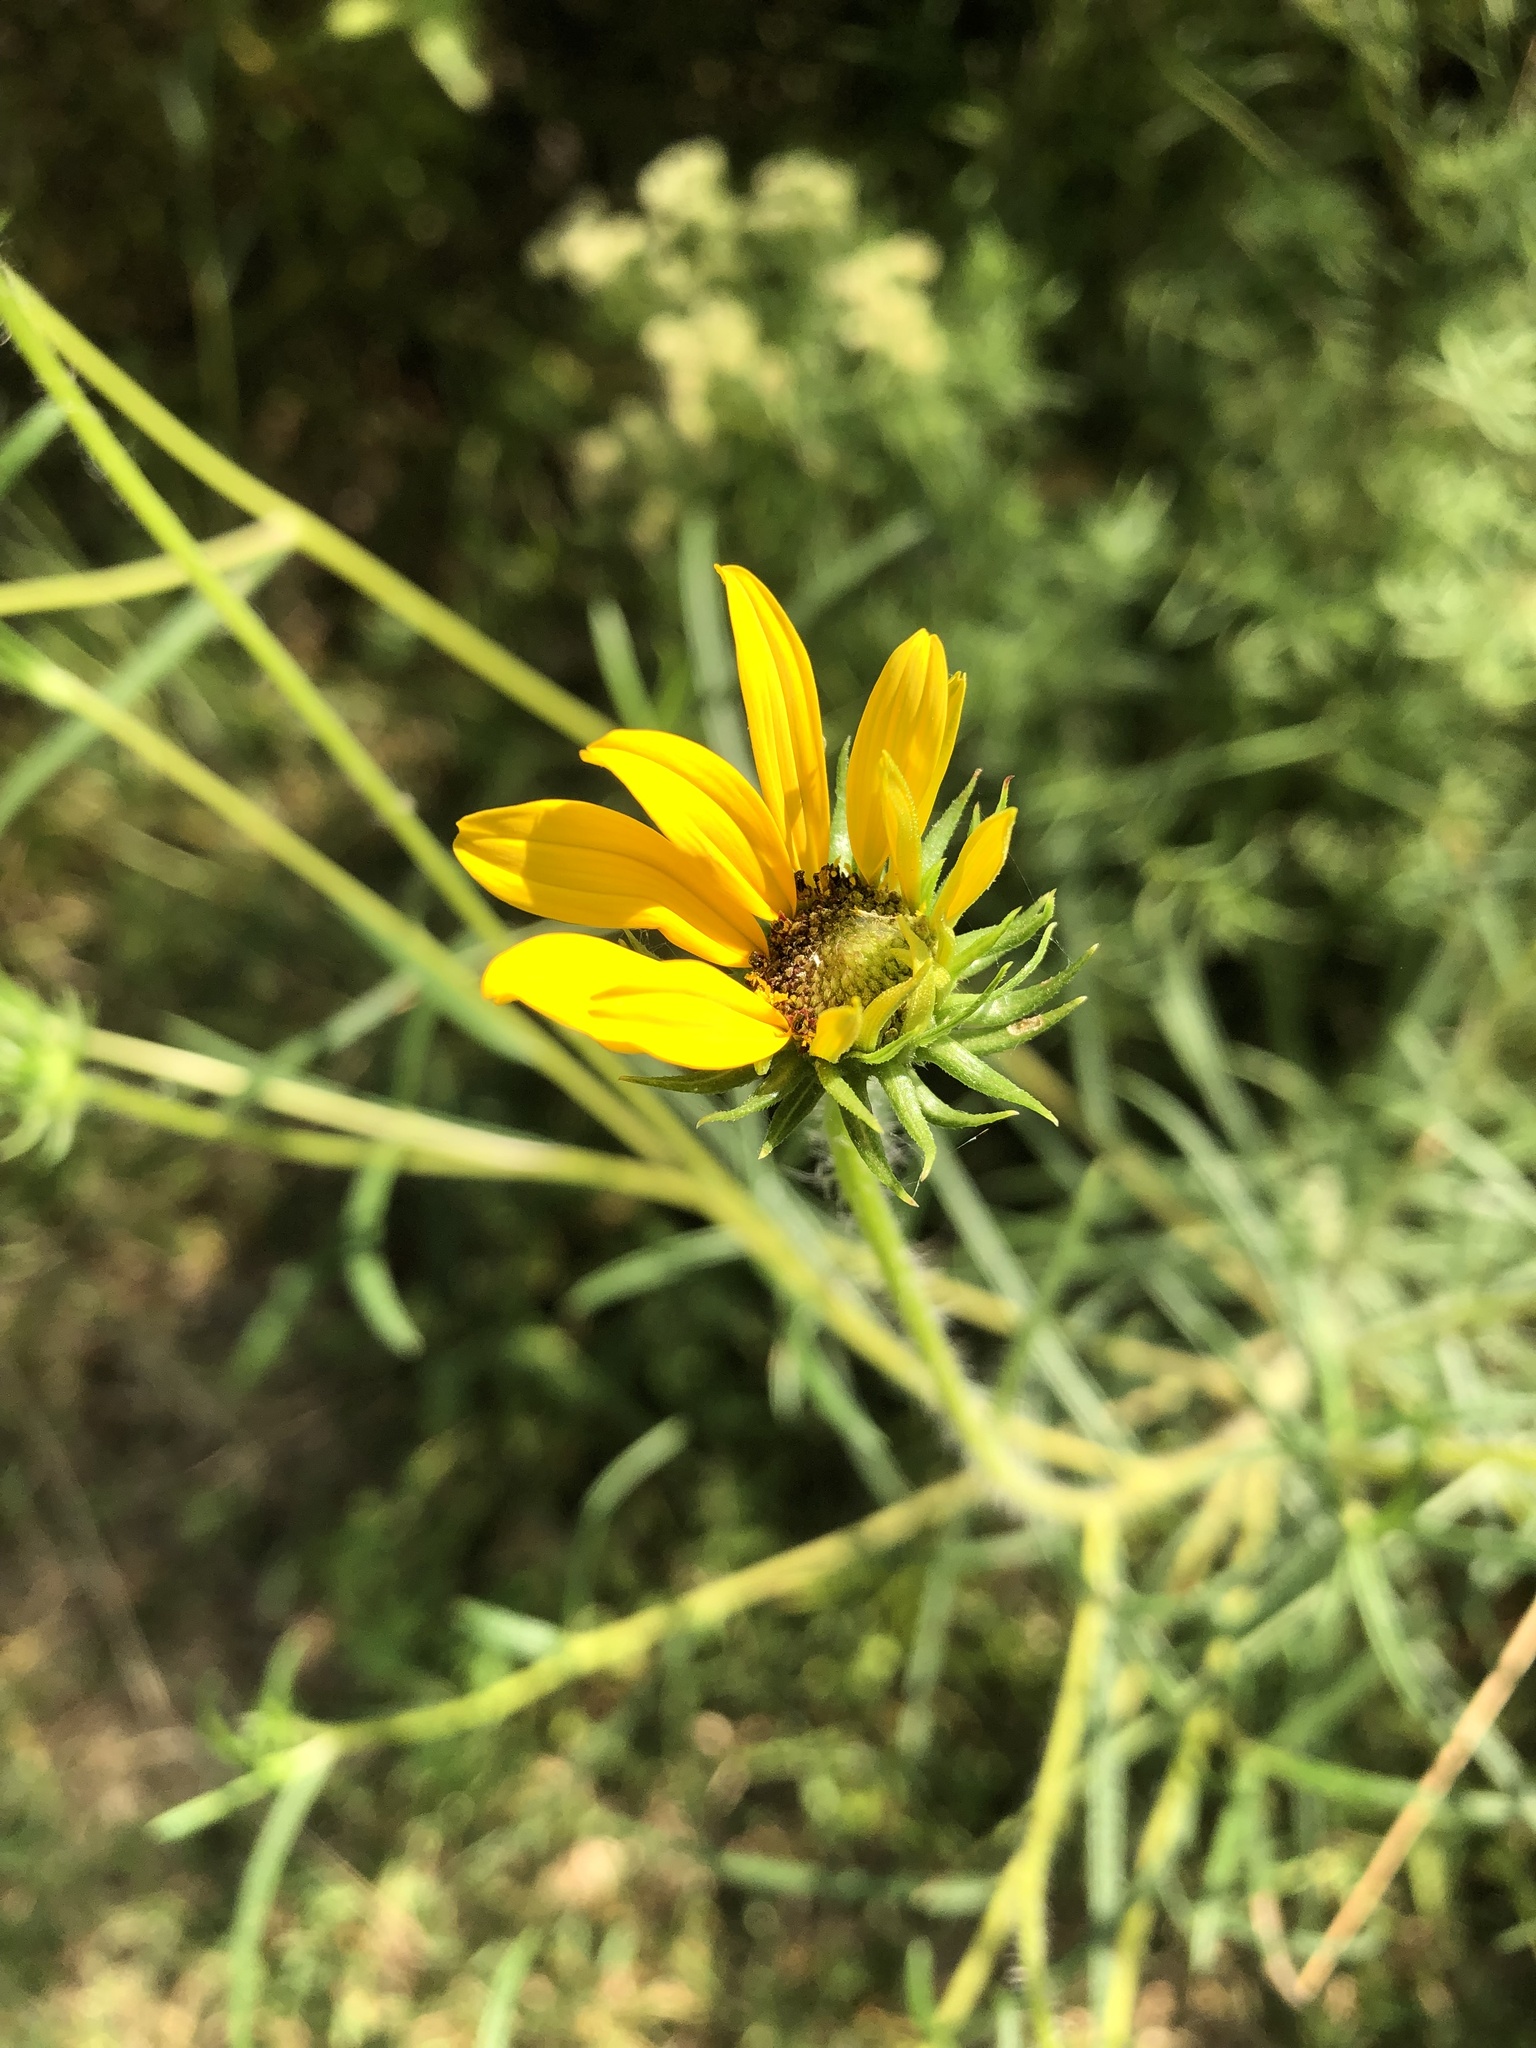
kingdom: Plantae
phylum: Tracheophyta
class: Magnoliopsida
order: Asterales
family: Asteraceae
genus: Helianthus
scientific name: Helianthus angustifolius
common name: Swamp sunflower
